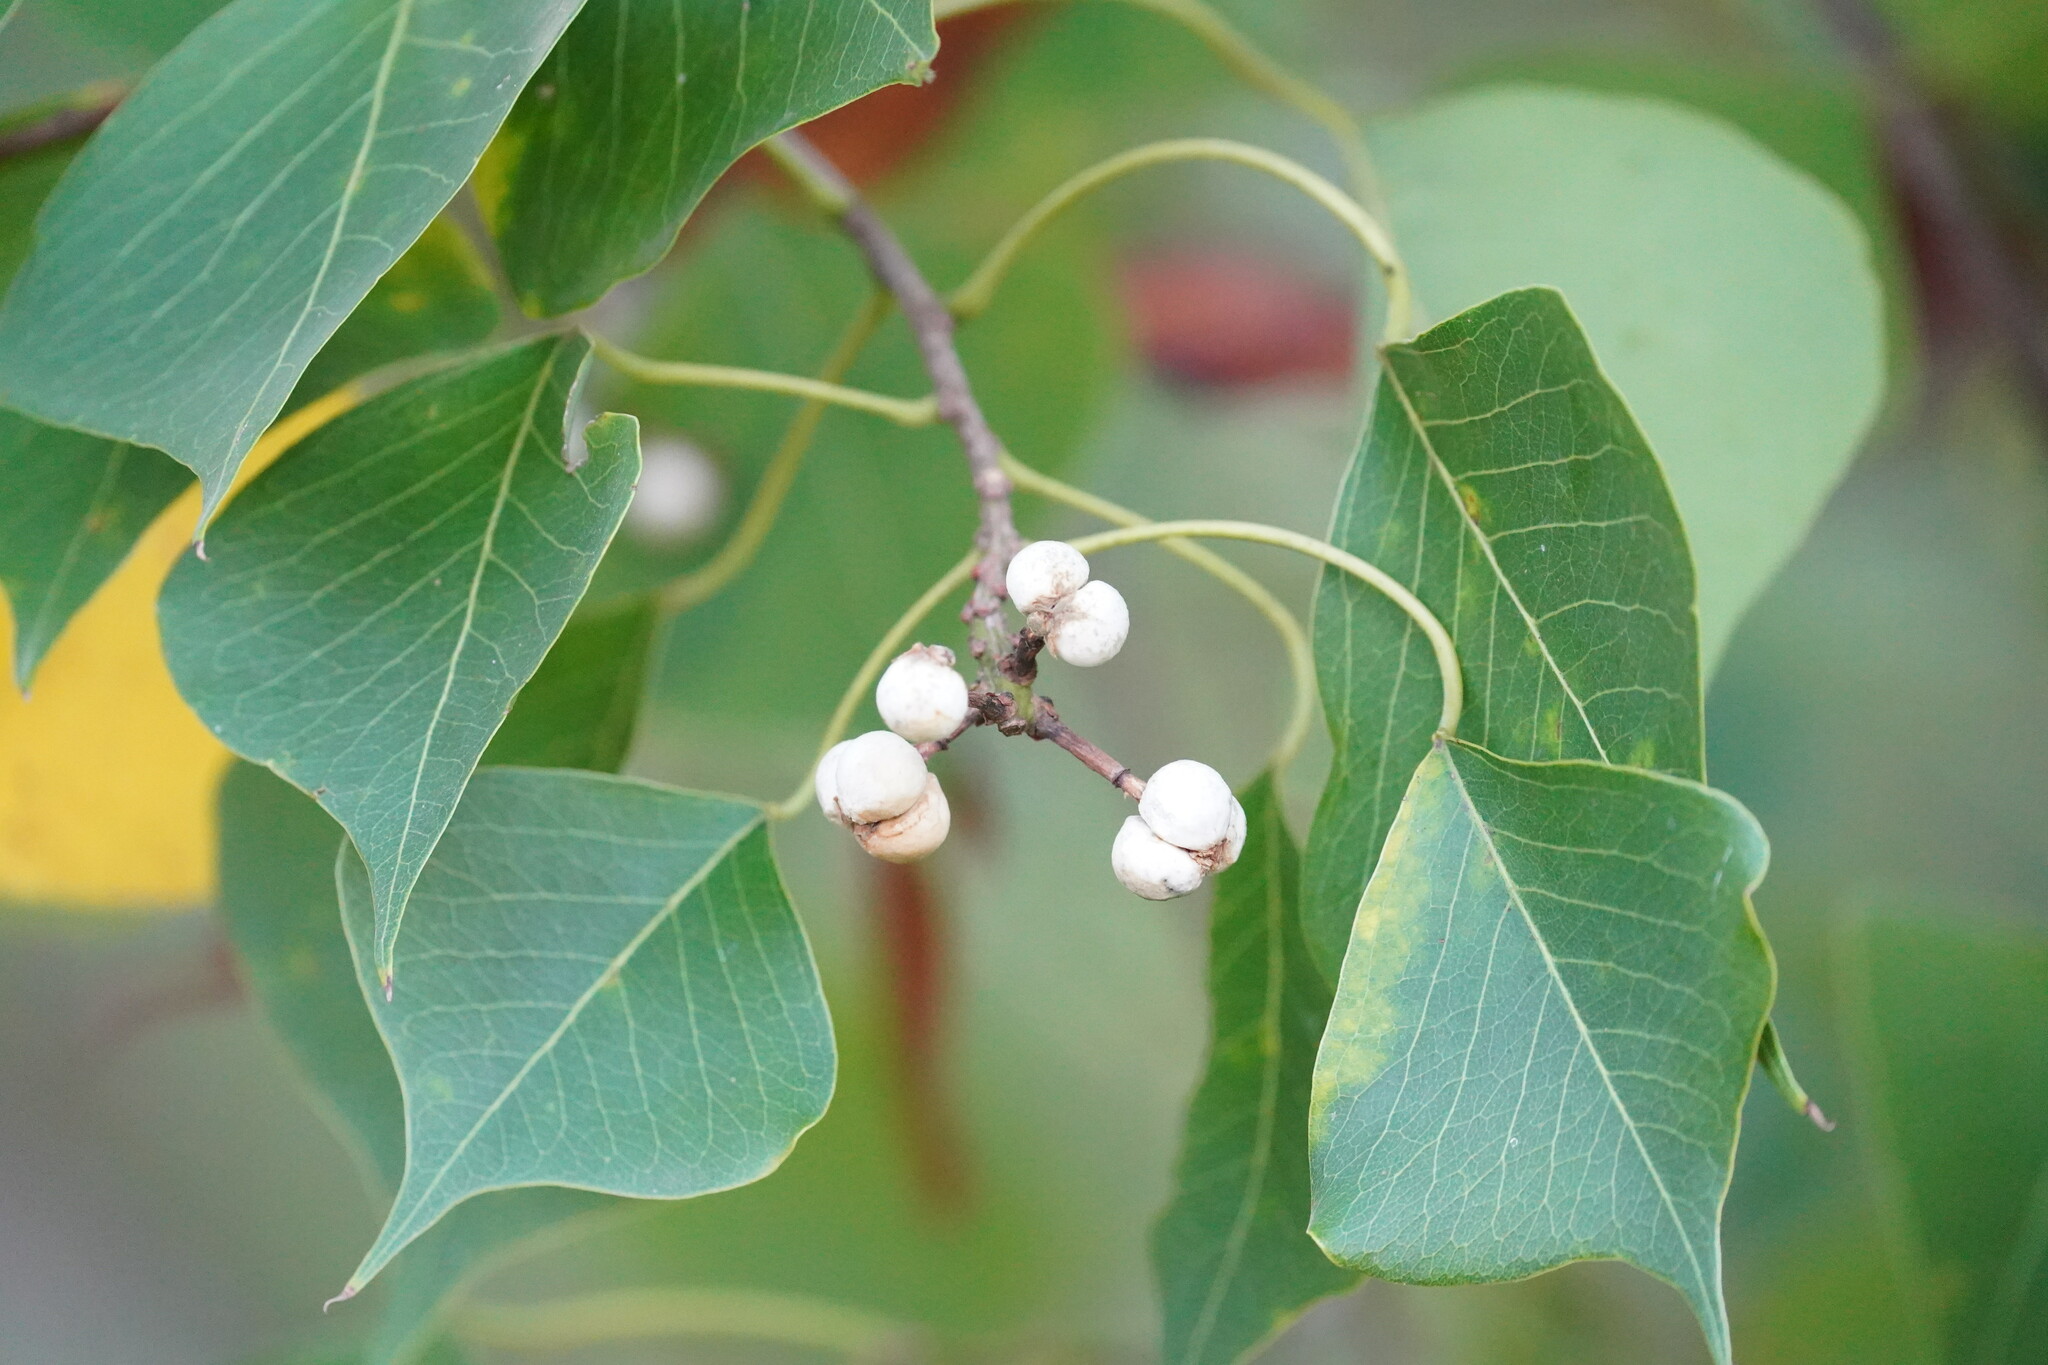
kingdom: Plantae
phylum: Tracheophyta
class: Magnoliopsida
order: Malpighiales
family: Euphorbiaceae
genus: Triadica
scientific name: Triadica sebifera
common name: Chinese tallow
